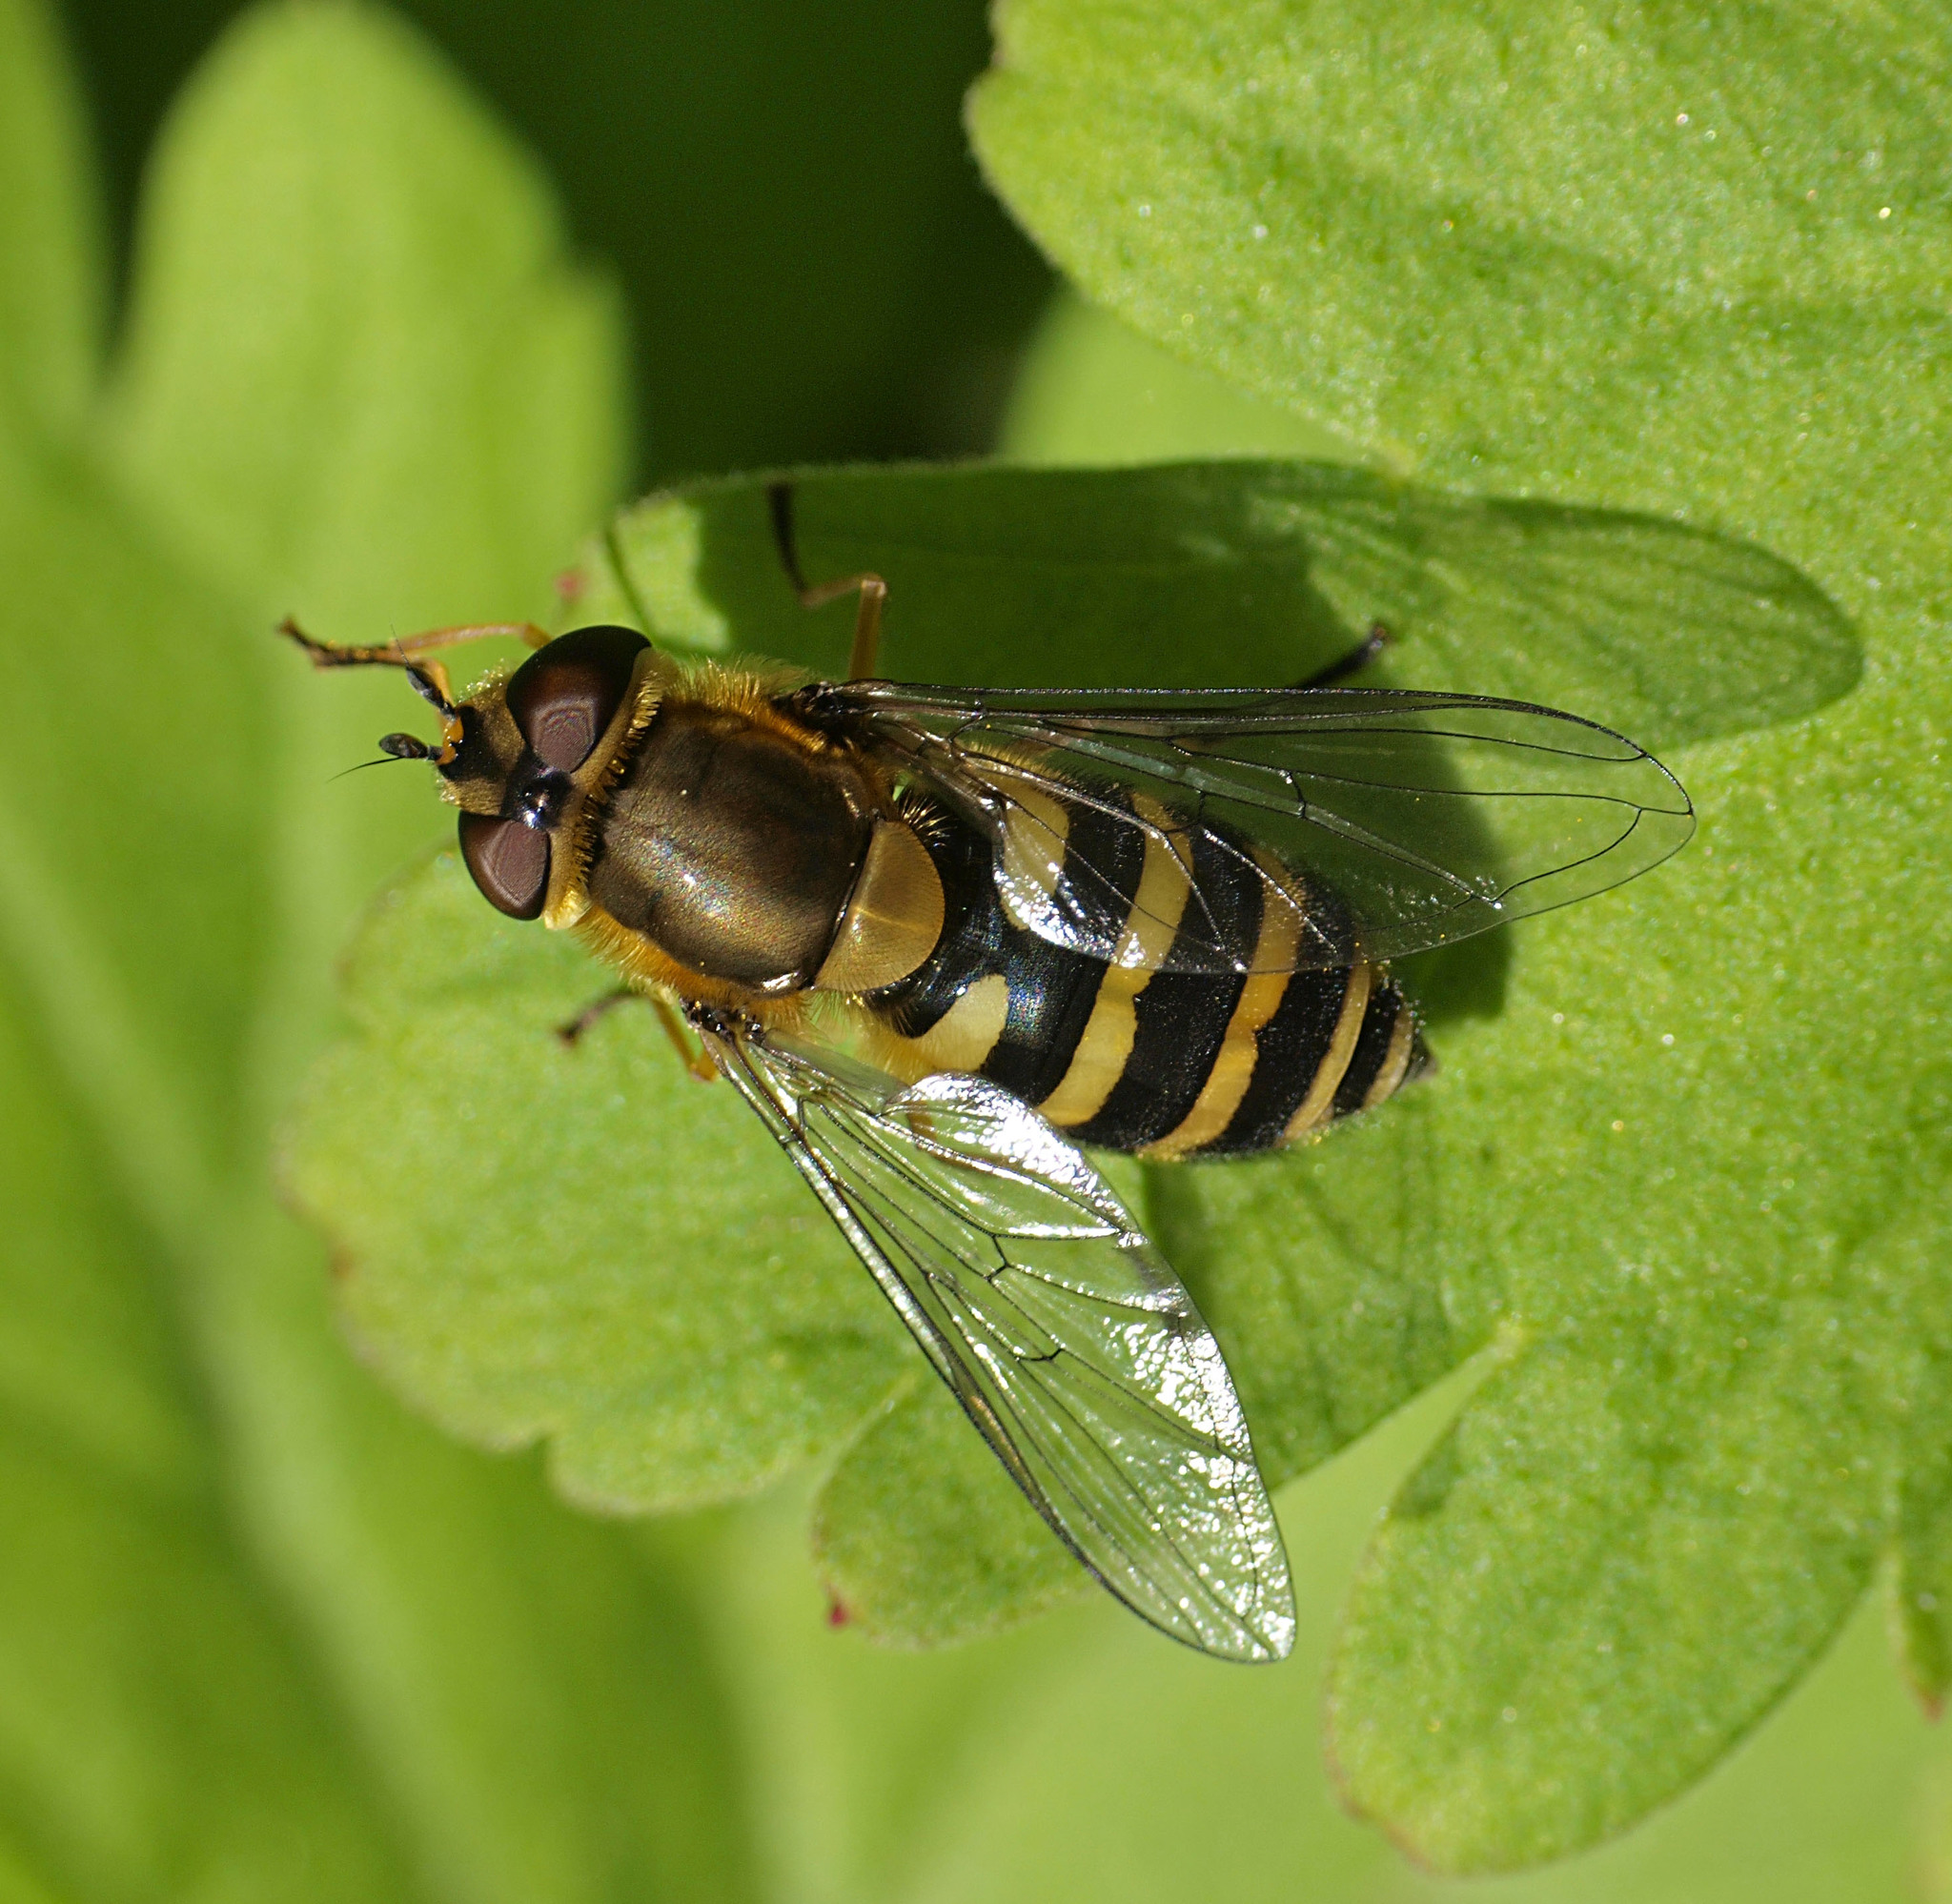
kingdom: Animalia
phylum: Arthropoda
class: Insecta
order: Diptera
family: Syrphidae
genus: Syrphus
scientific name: Syrphus
